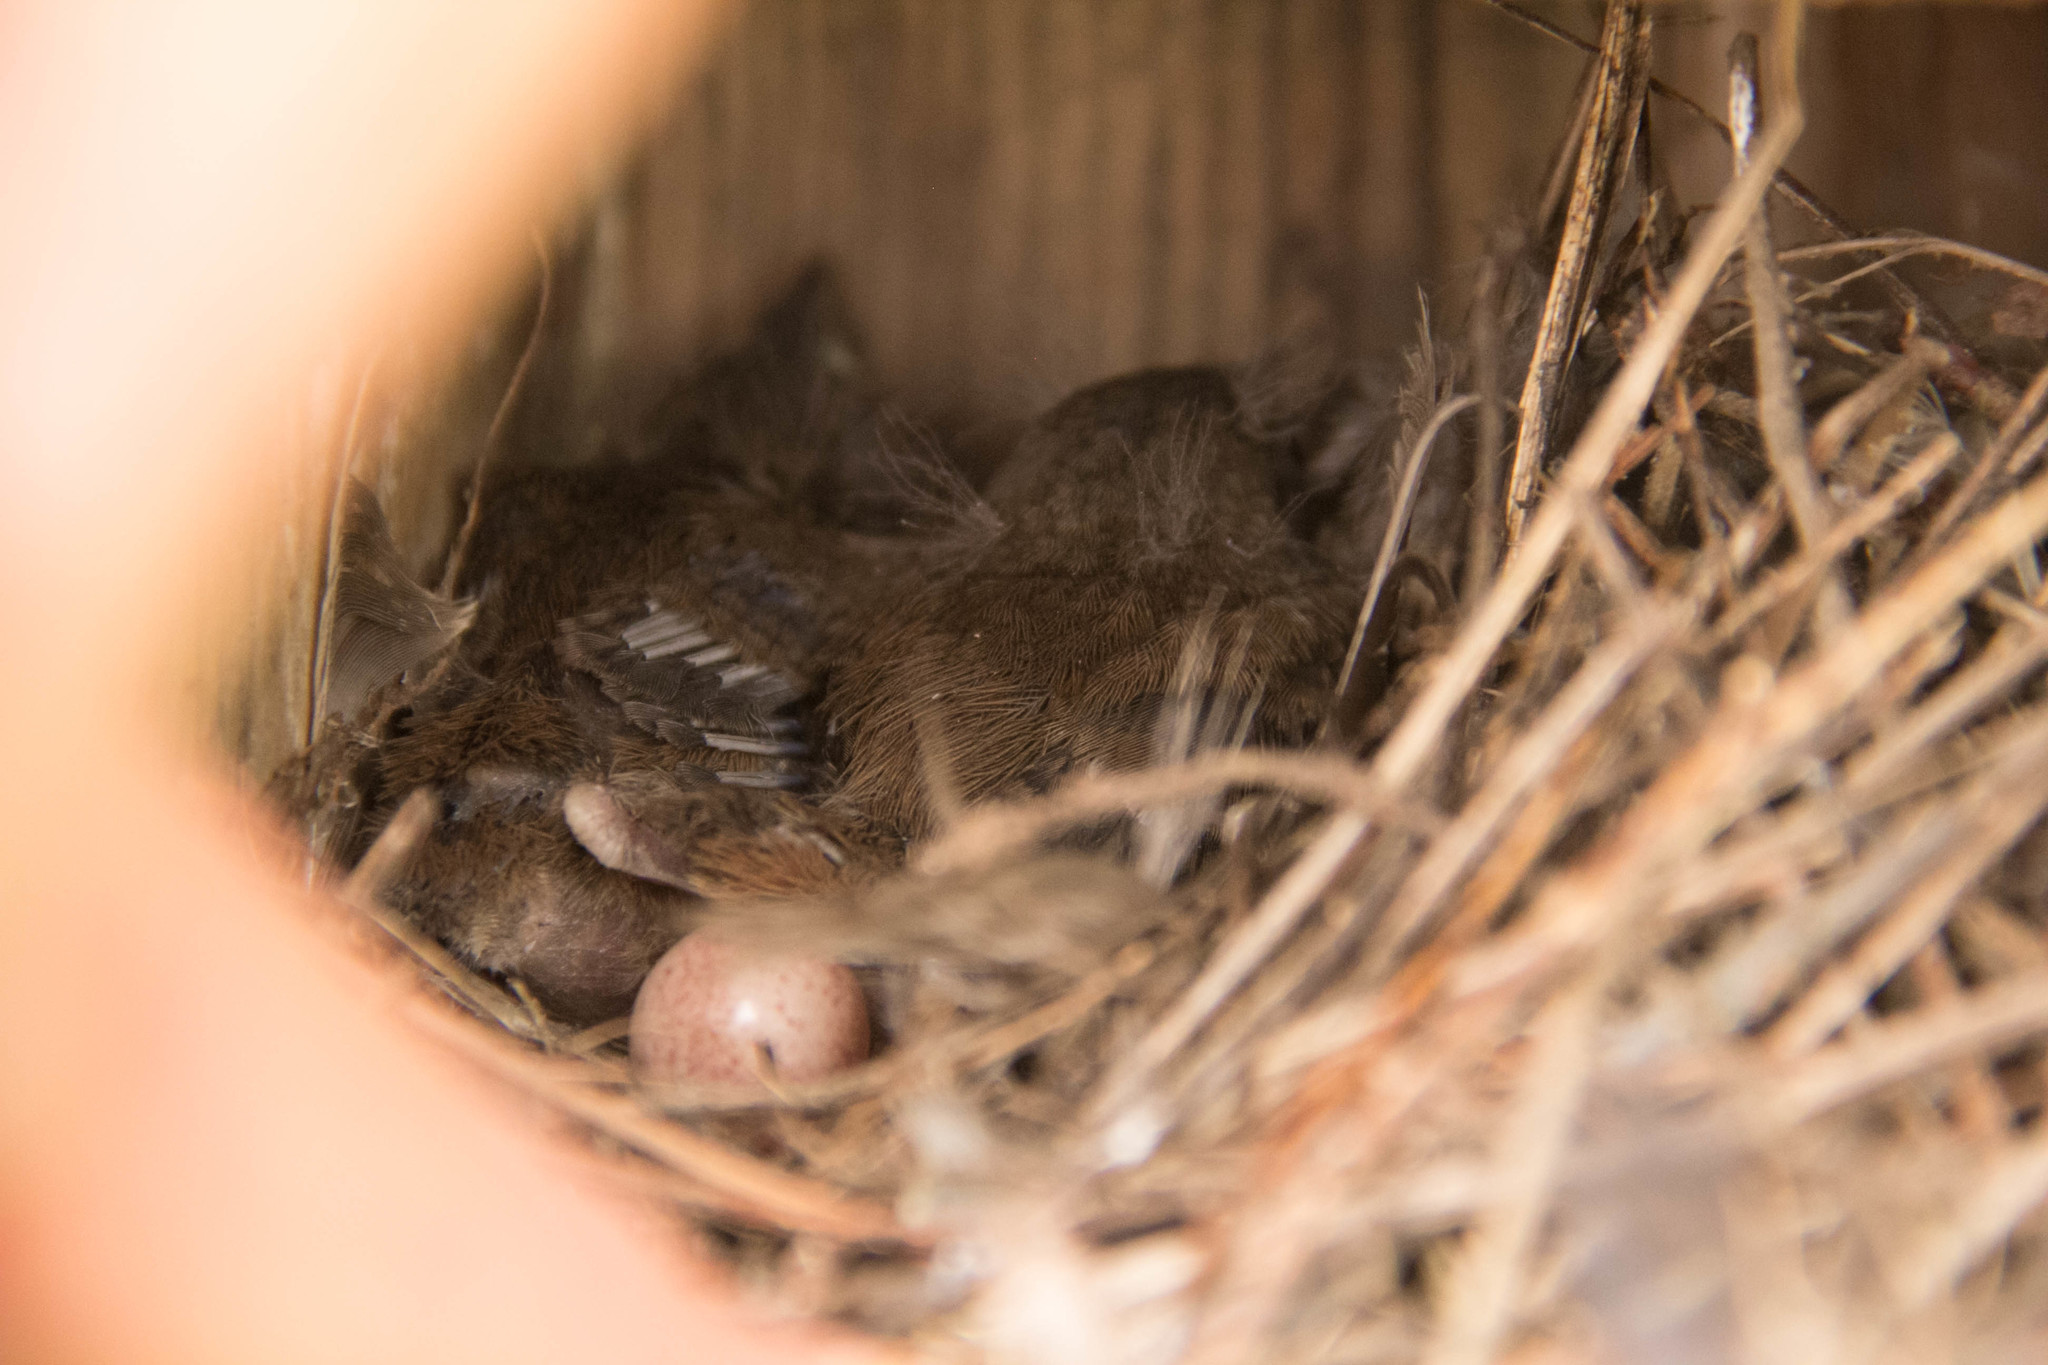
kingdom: Animalia
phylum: Chordata
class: Aves
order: Passeriformes
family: Troglodytidae
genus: Troglodytes
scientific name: Troglodytes aedon
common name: House wren
